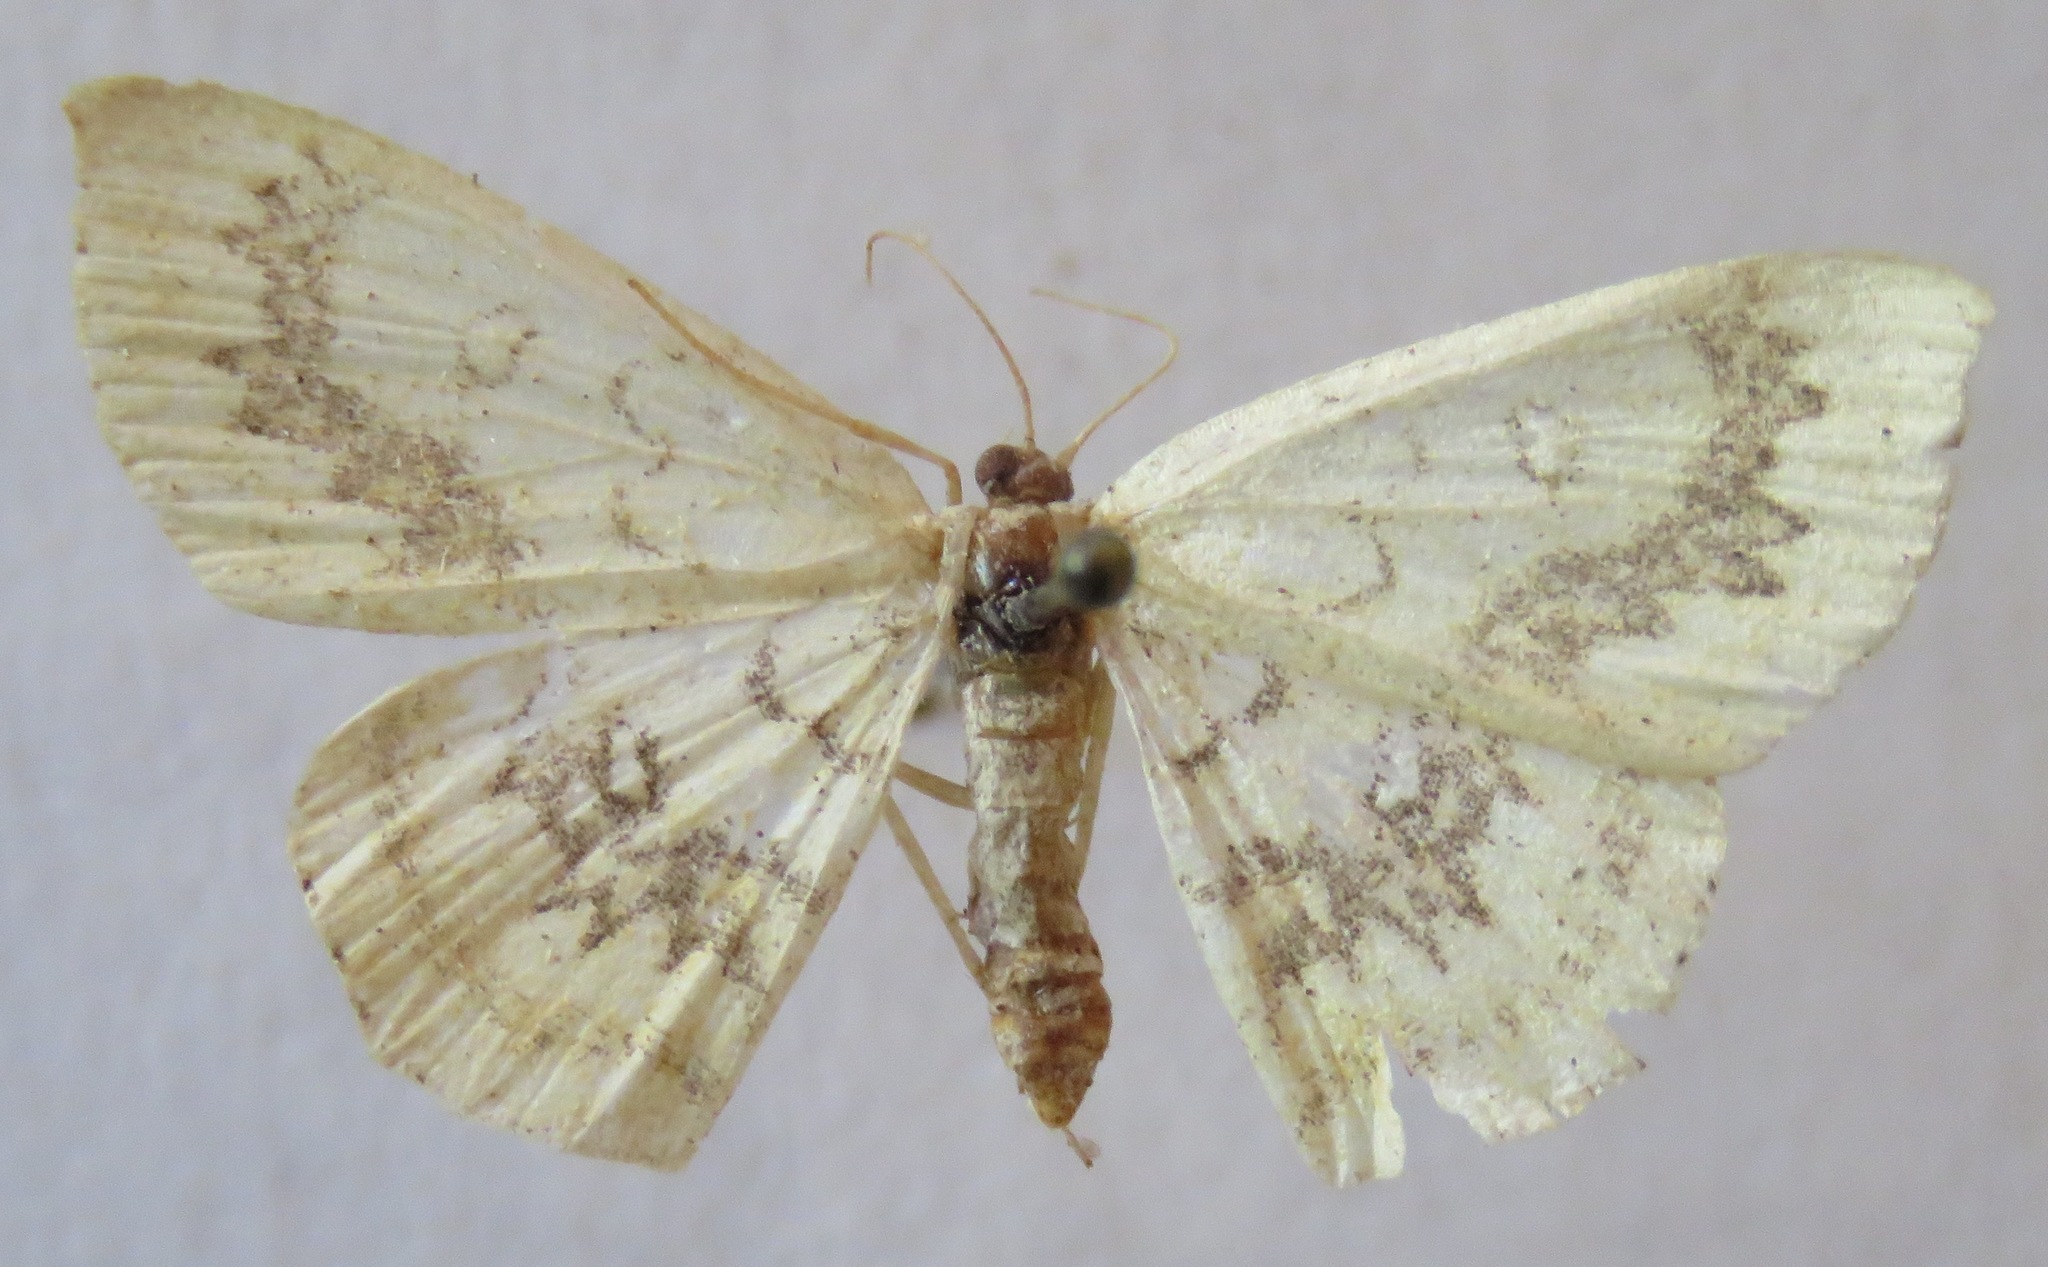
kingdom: Animalia
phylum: Arthropoda
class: Insecta
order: Lepidoptera
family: Geometridae
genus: Cyclophora
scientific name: Cyclophora annularia
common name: Mocha
